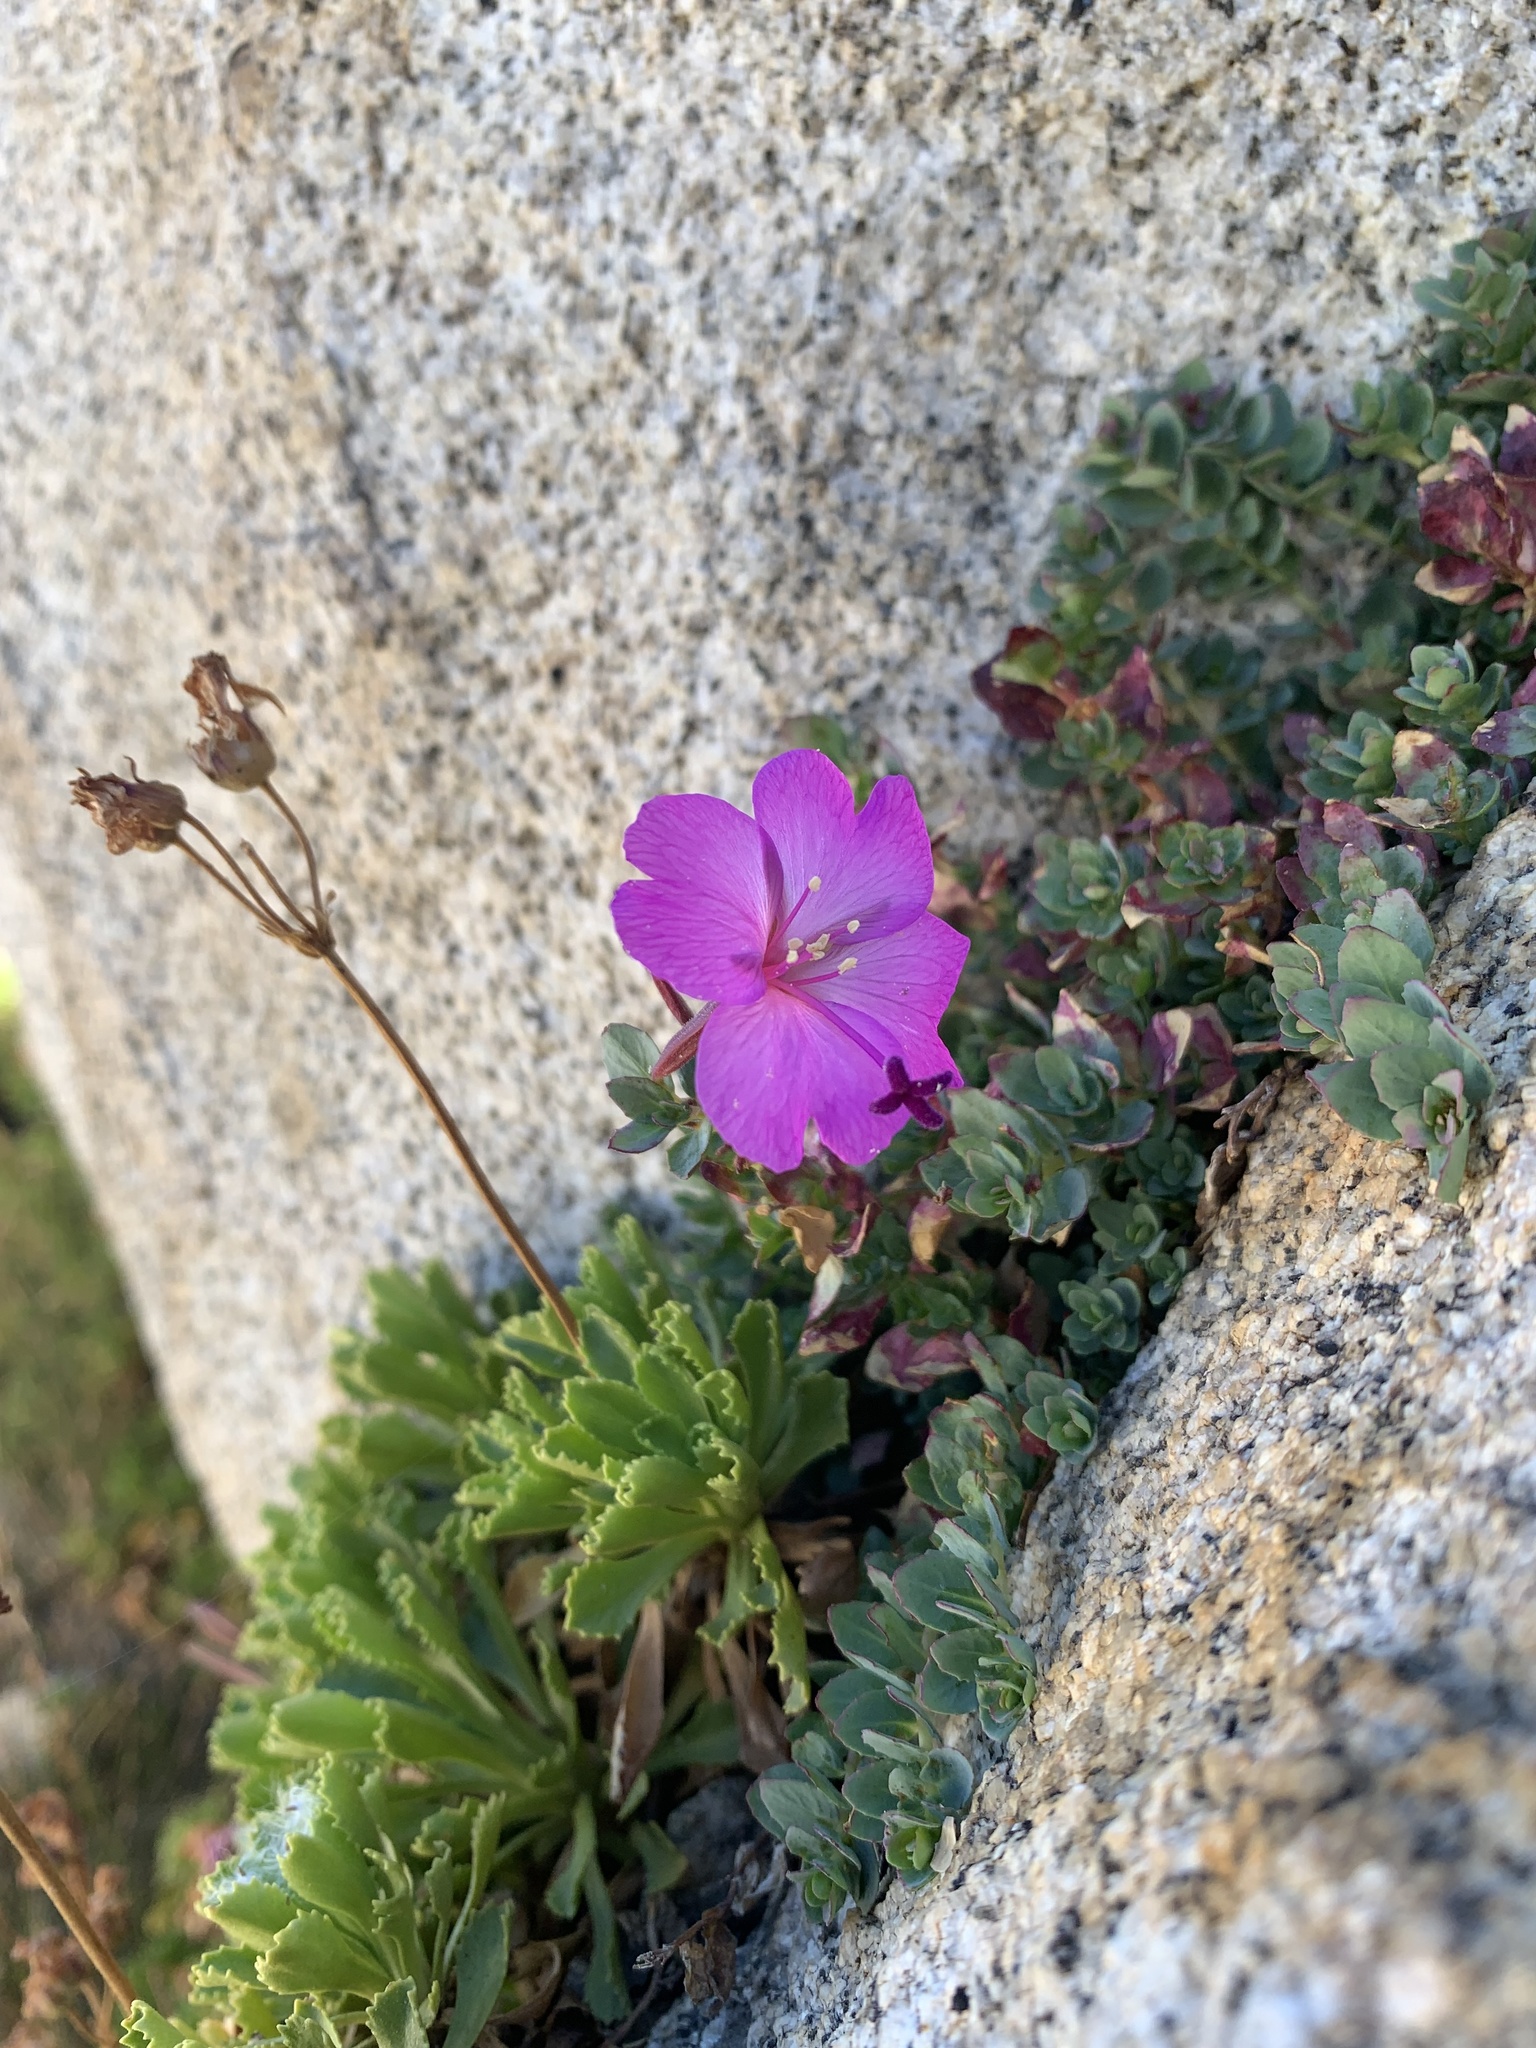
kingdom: Plantae
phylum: Tracheophyta
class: Magnoliopsida
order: Myrtales
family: Onagraceae
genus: Epilobium
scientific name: Epilobium obcordatum
